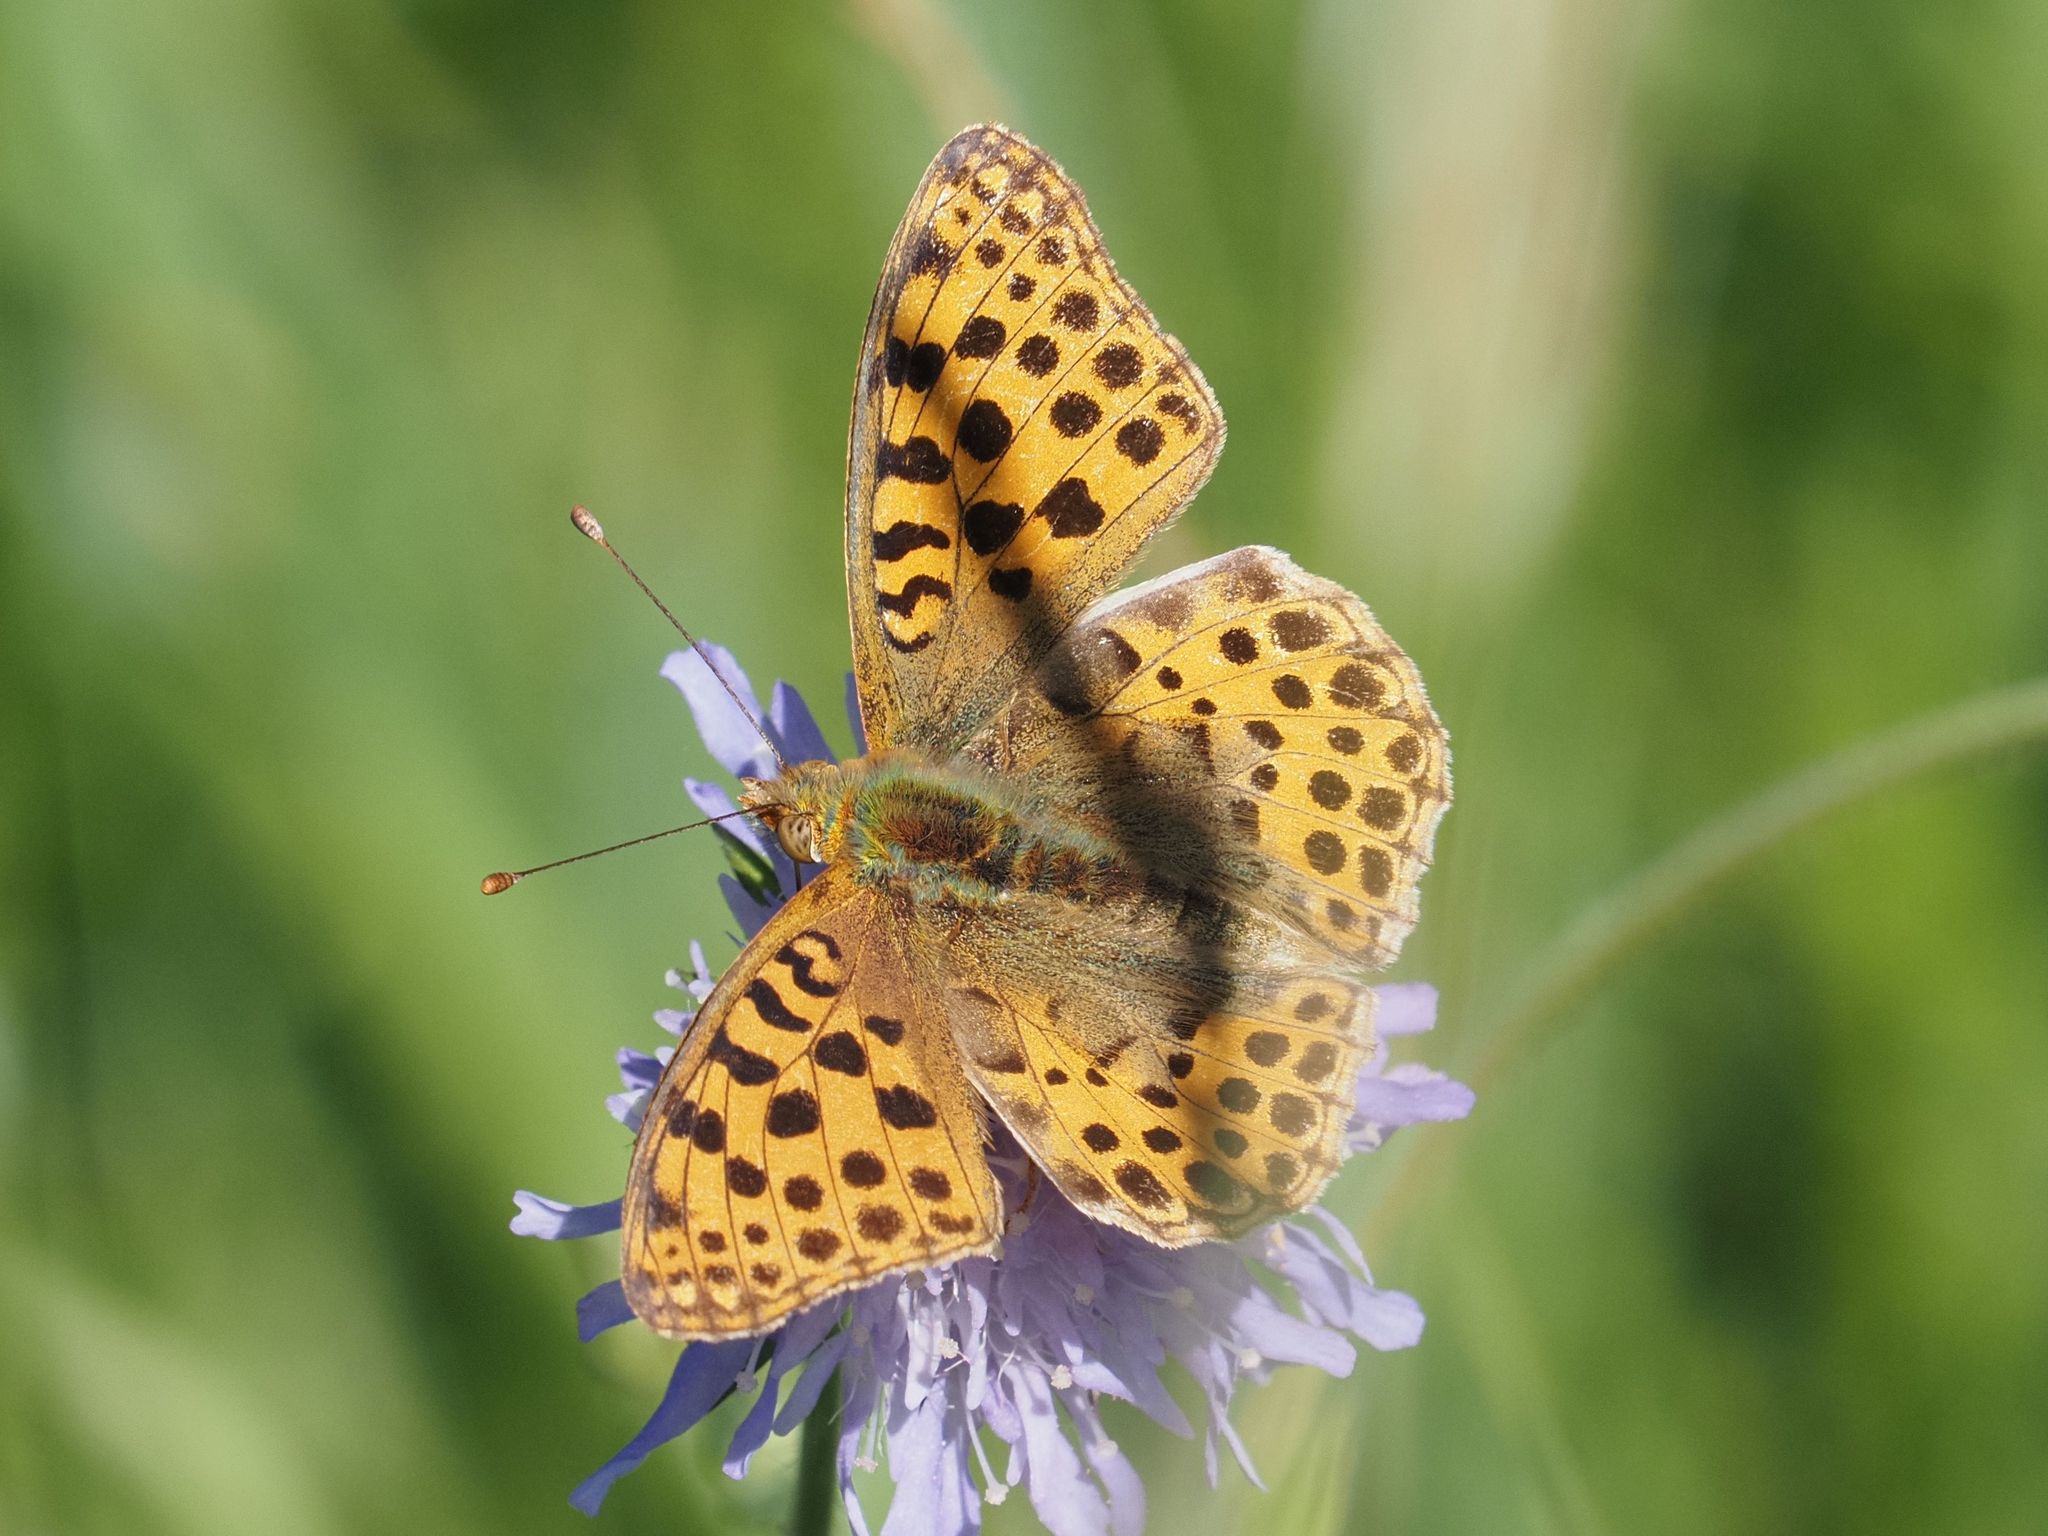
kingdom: Animalia
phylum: Arthropoda
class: Insecta
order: Lepidoptera
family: Nymphalidae
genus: Issoria
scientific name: Issoria lathonia
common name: Queen of spain fritillary
